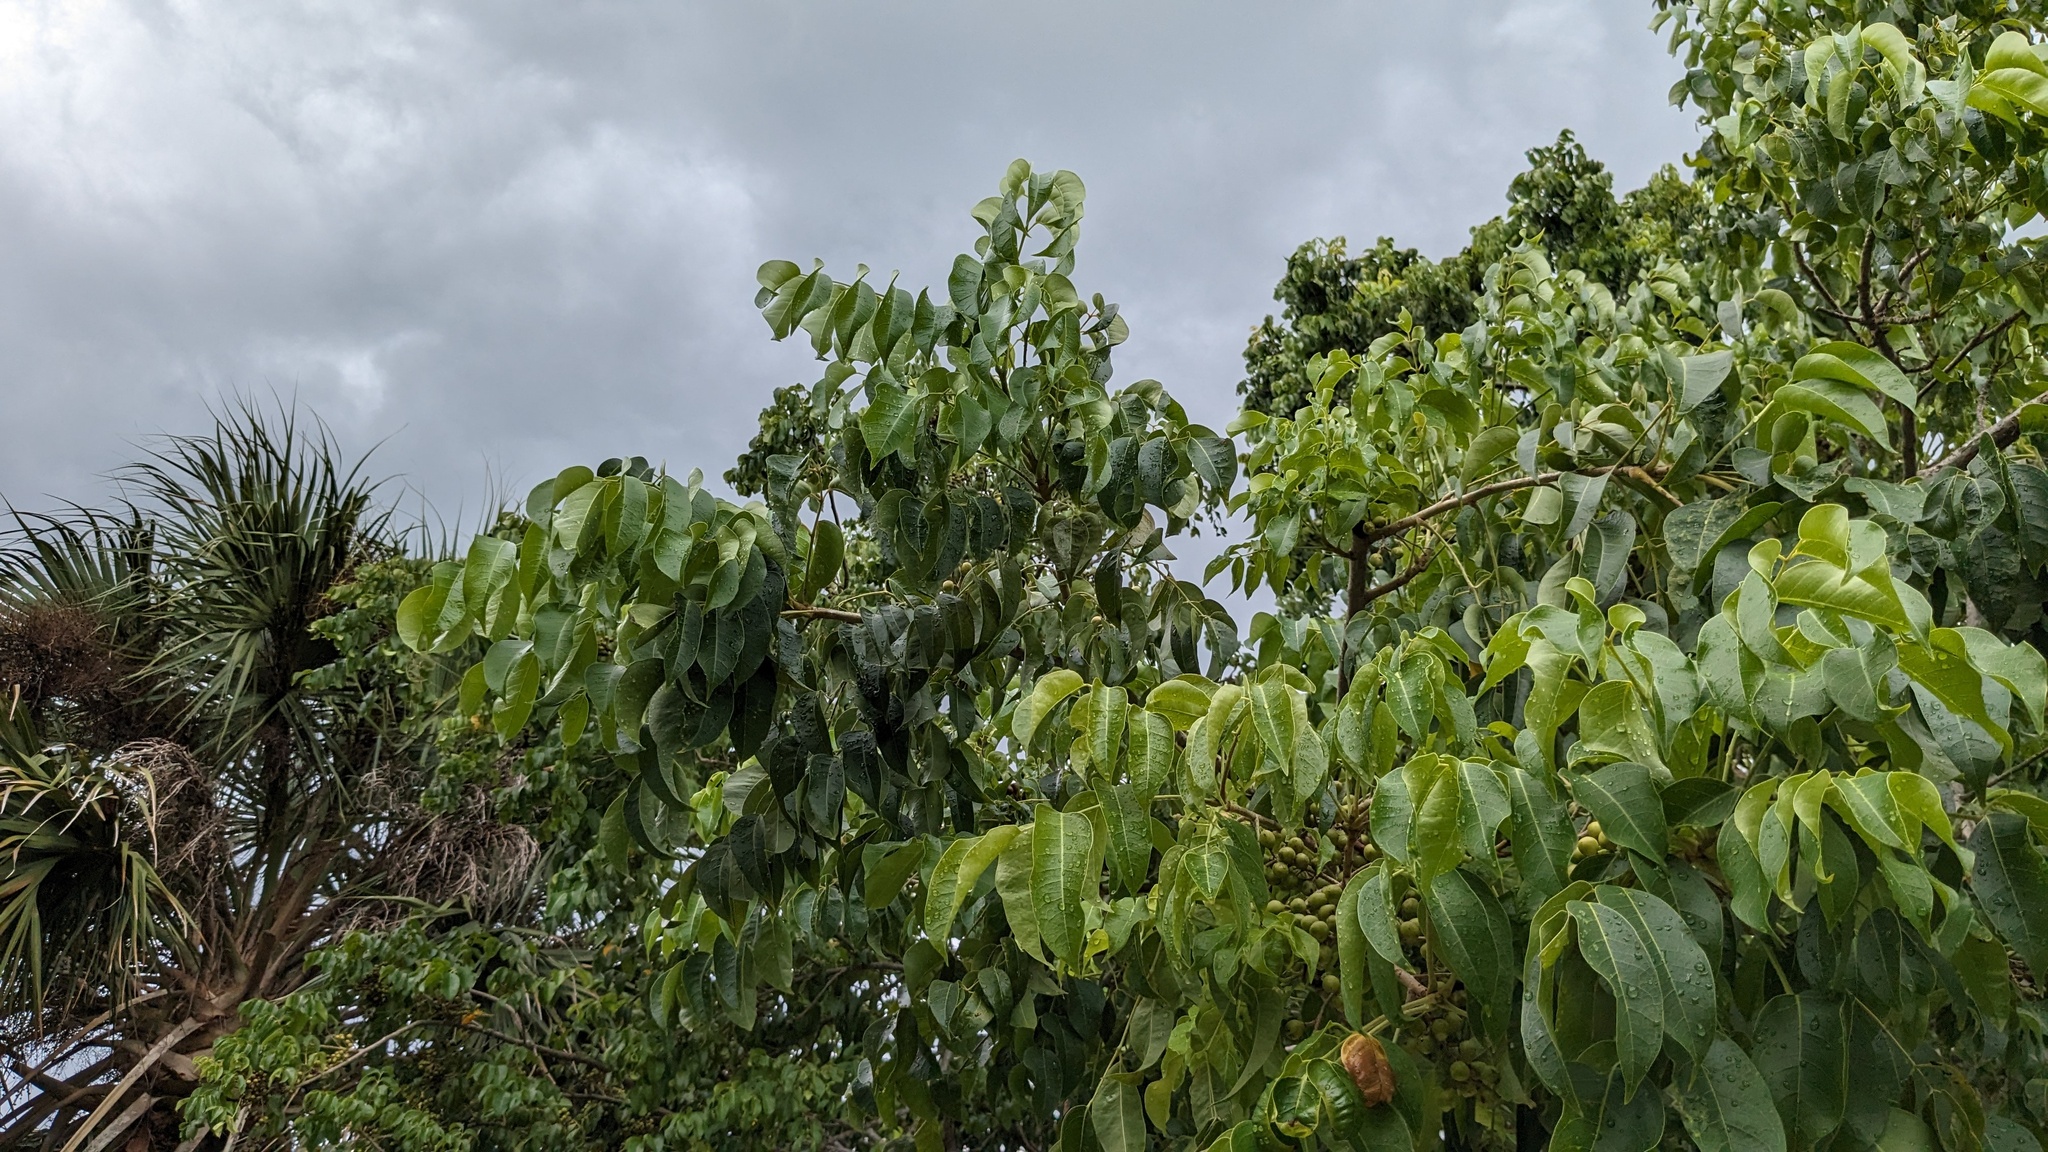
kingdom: Plantae
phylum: Tracheophyta
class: Magnoliopsida
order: Sapindales
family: Burseraceae
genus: Bursera
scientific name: Bursera simaruba
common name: Turpentine tree
